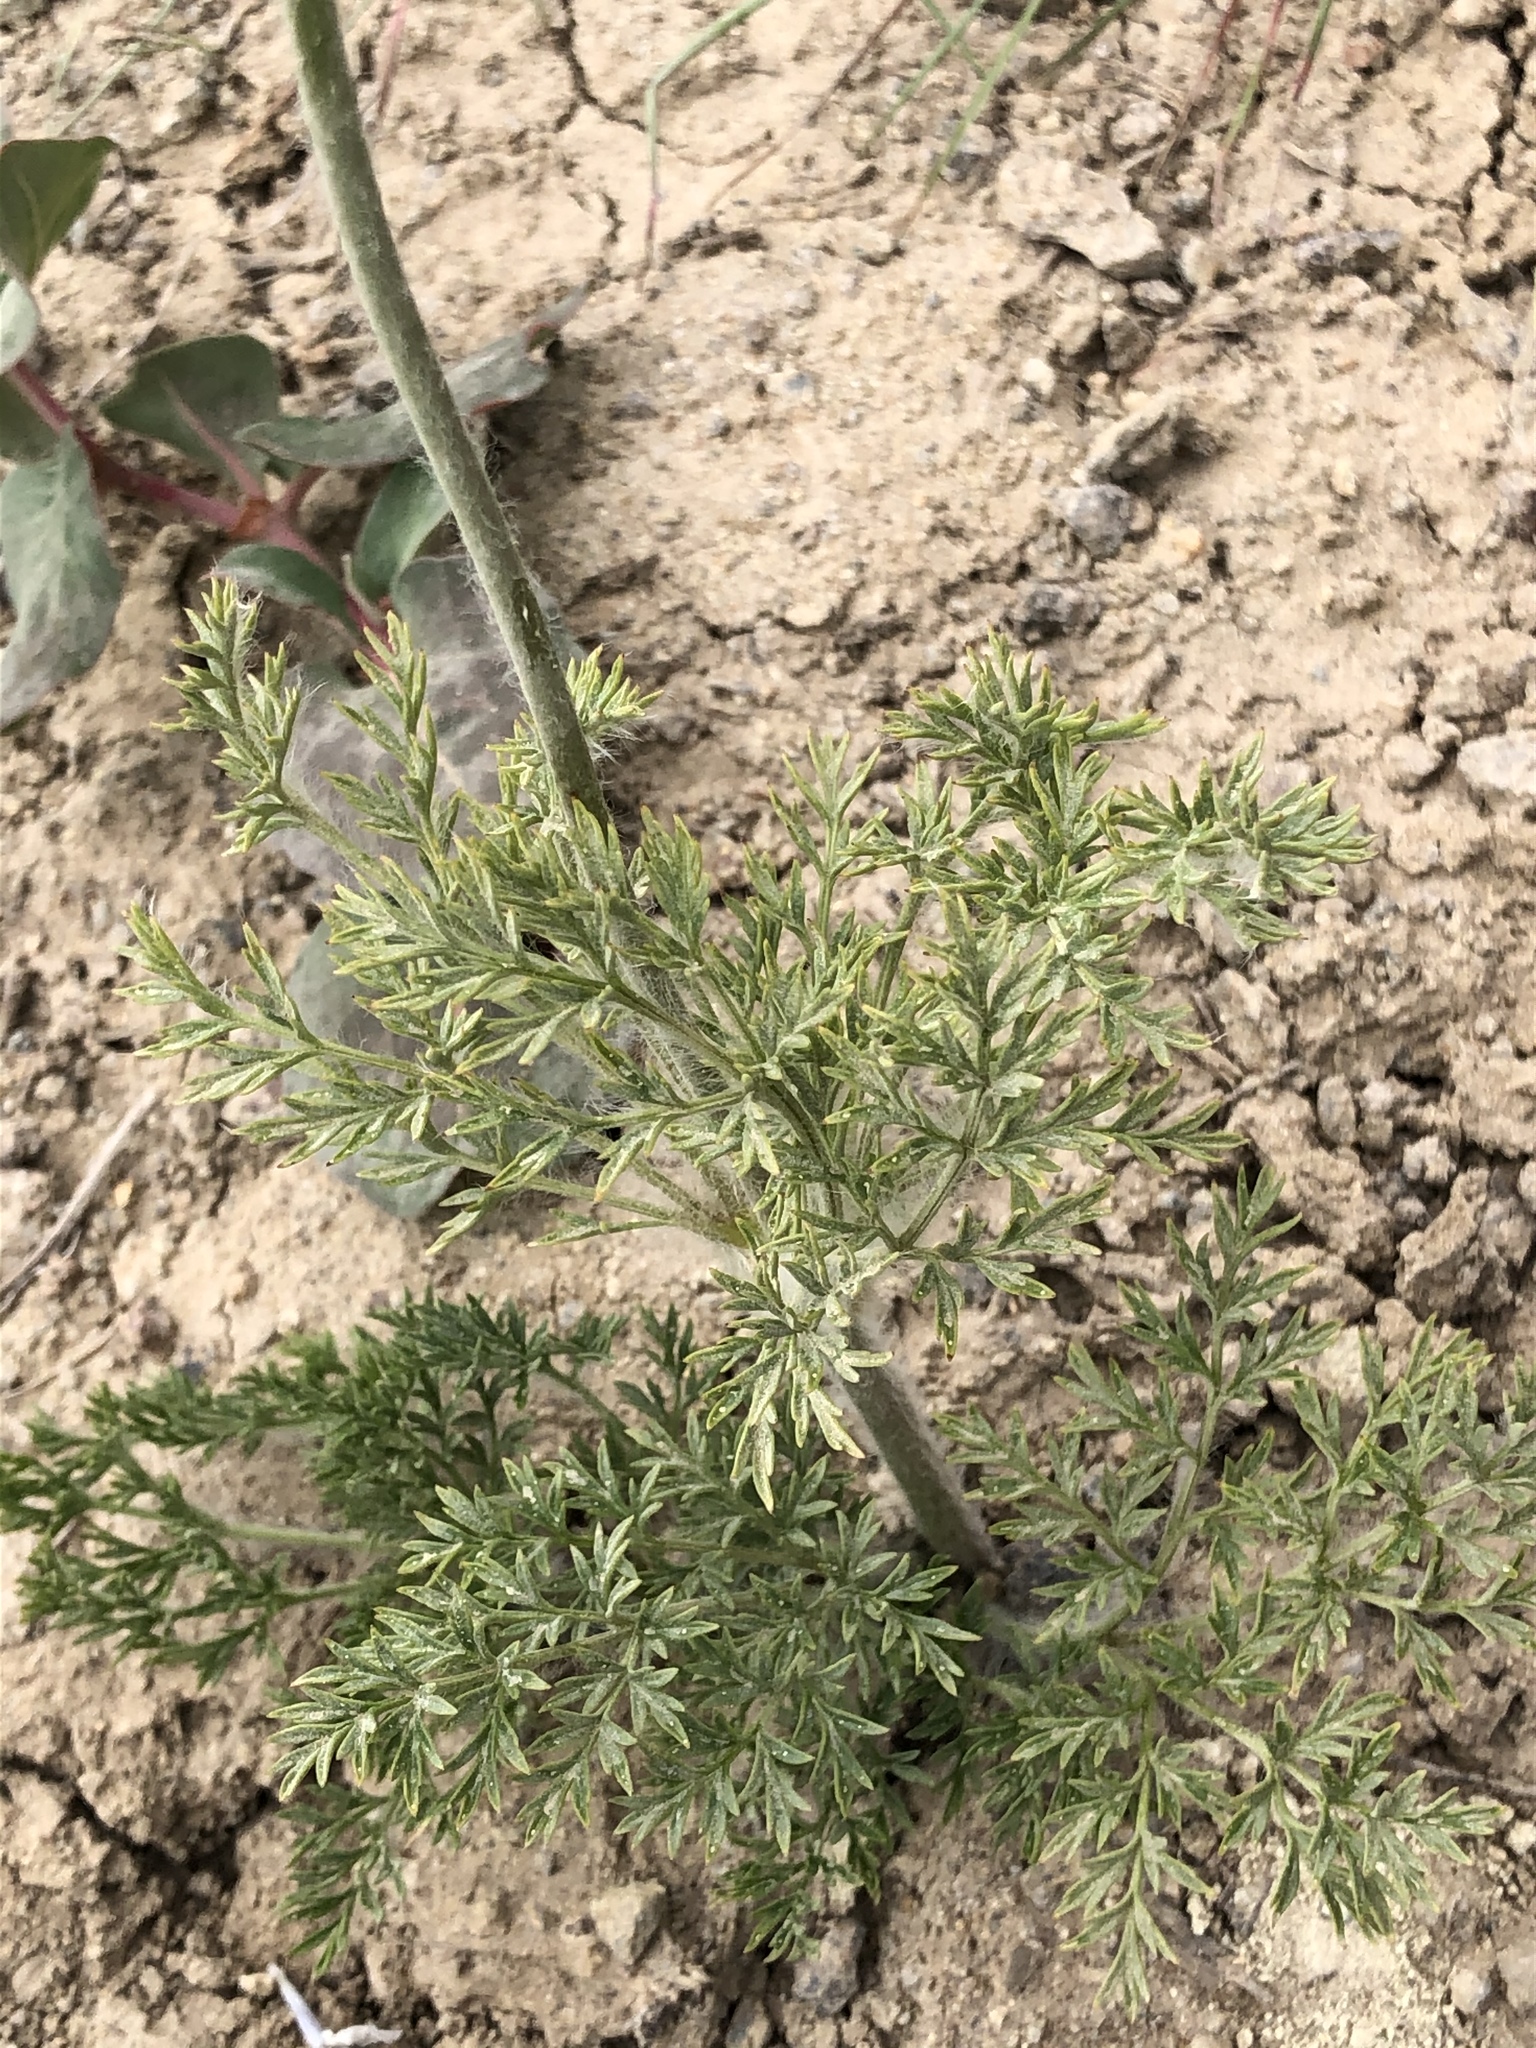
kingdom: Plantae
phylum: Tracheophyta
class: Magnoliopsida
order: Ranunculales
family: Ranunculaceae
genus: Pulsatilla
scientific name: Pulsatilla occidentalis
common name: Mountain pasqueflower
